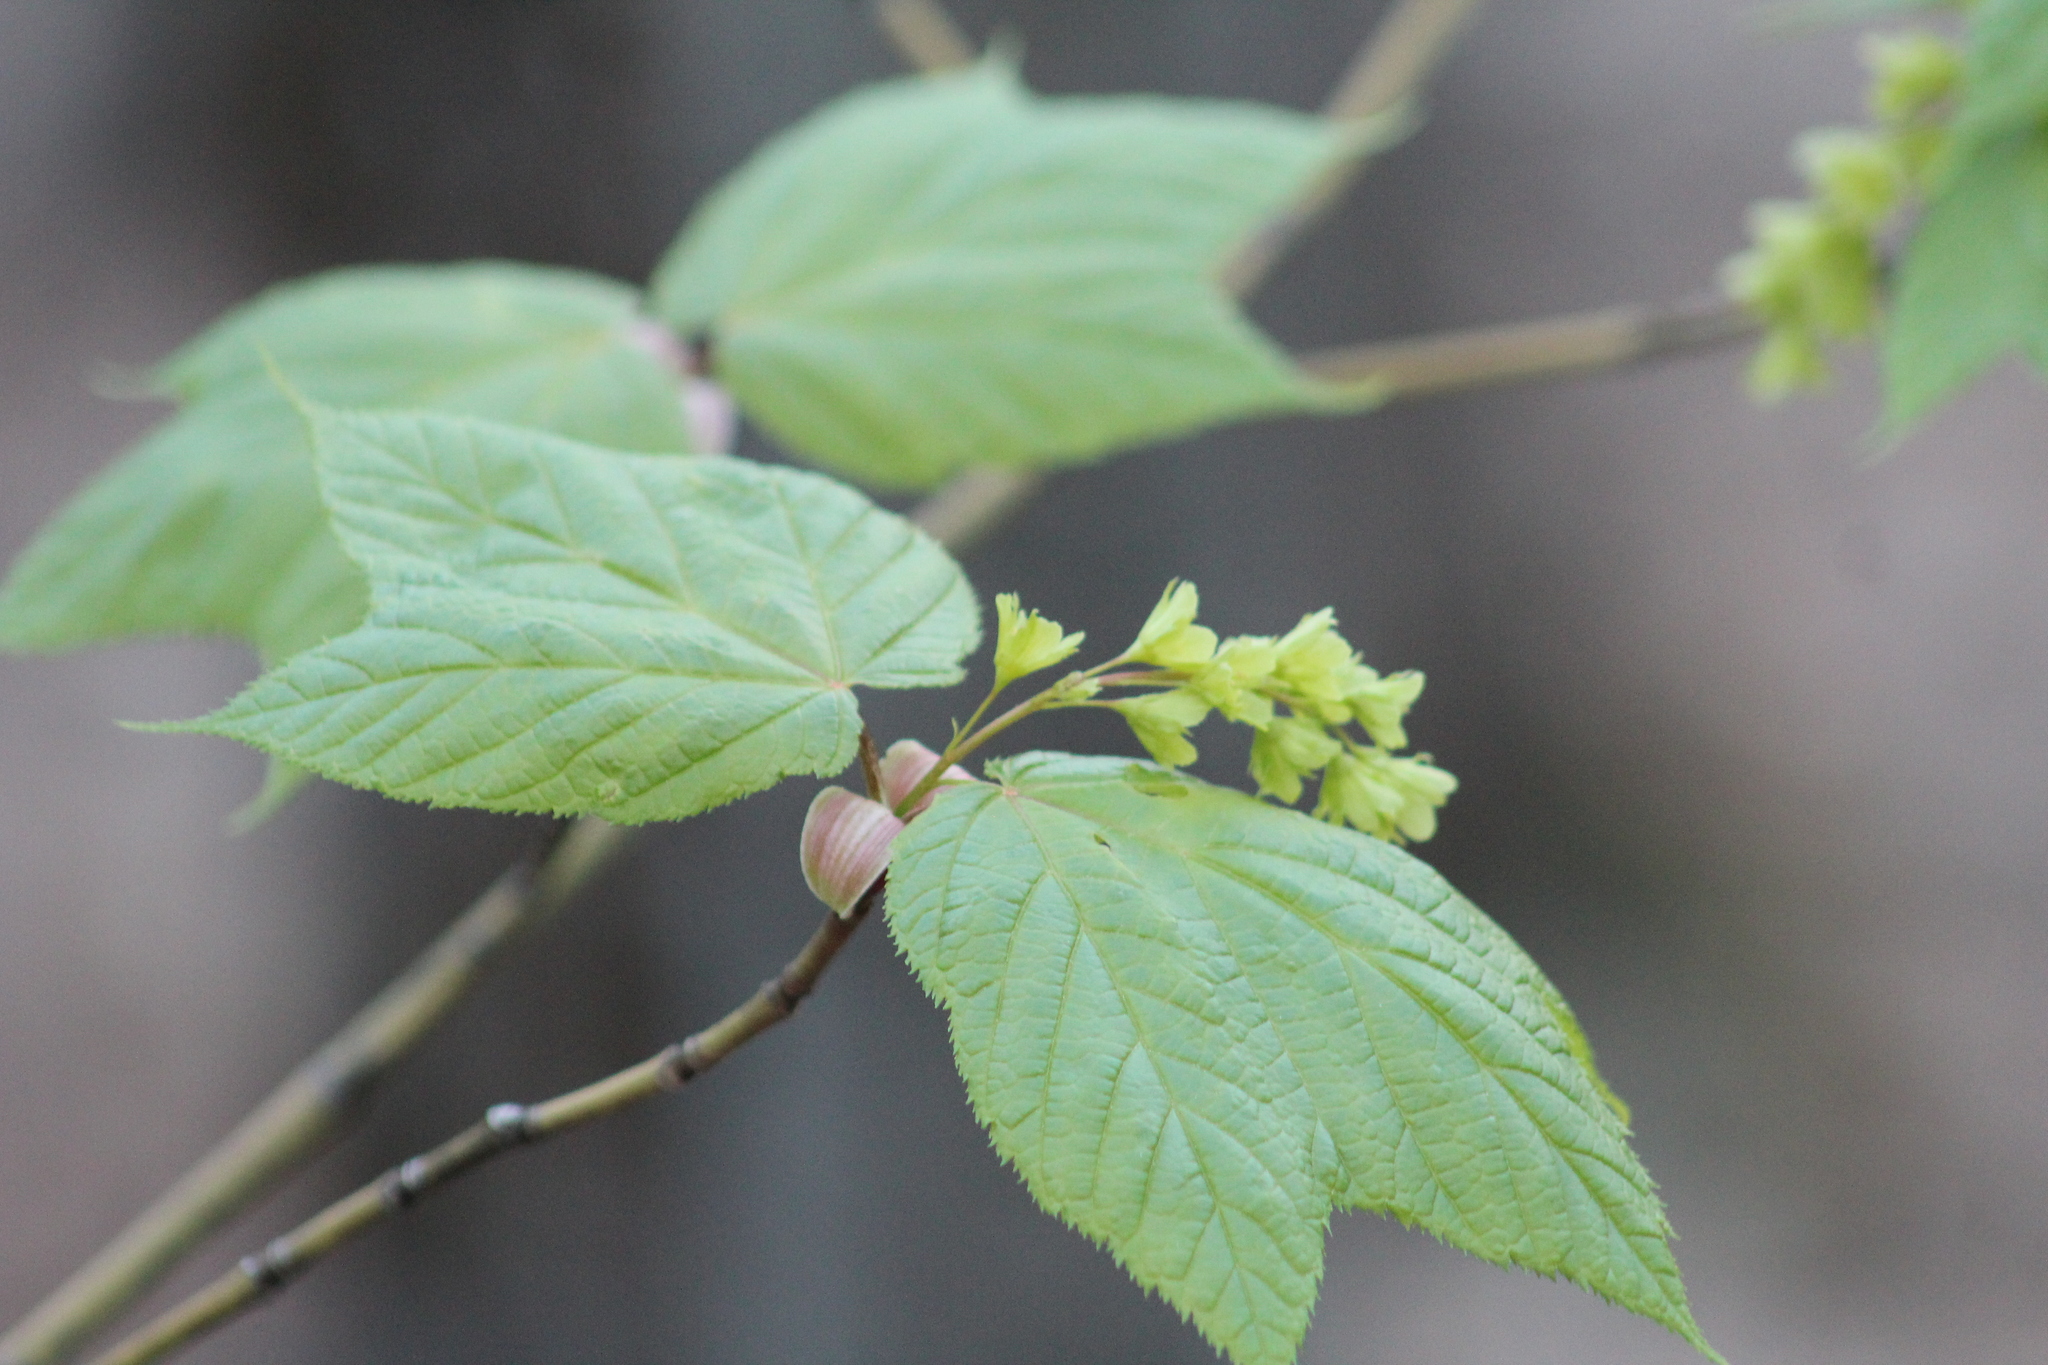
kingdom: Plantae
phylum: Tracheophyta
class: Magnoliopsida
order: Sapindales
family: Sapindaceae
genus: Acer
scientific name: Acer pensylvanicum
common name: Moosewood
